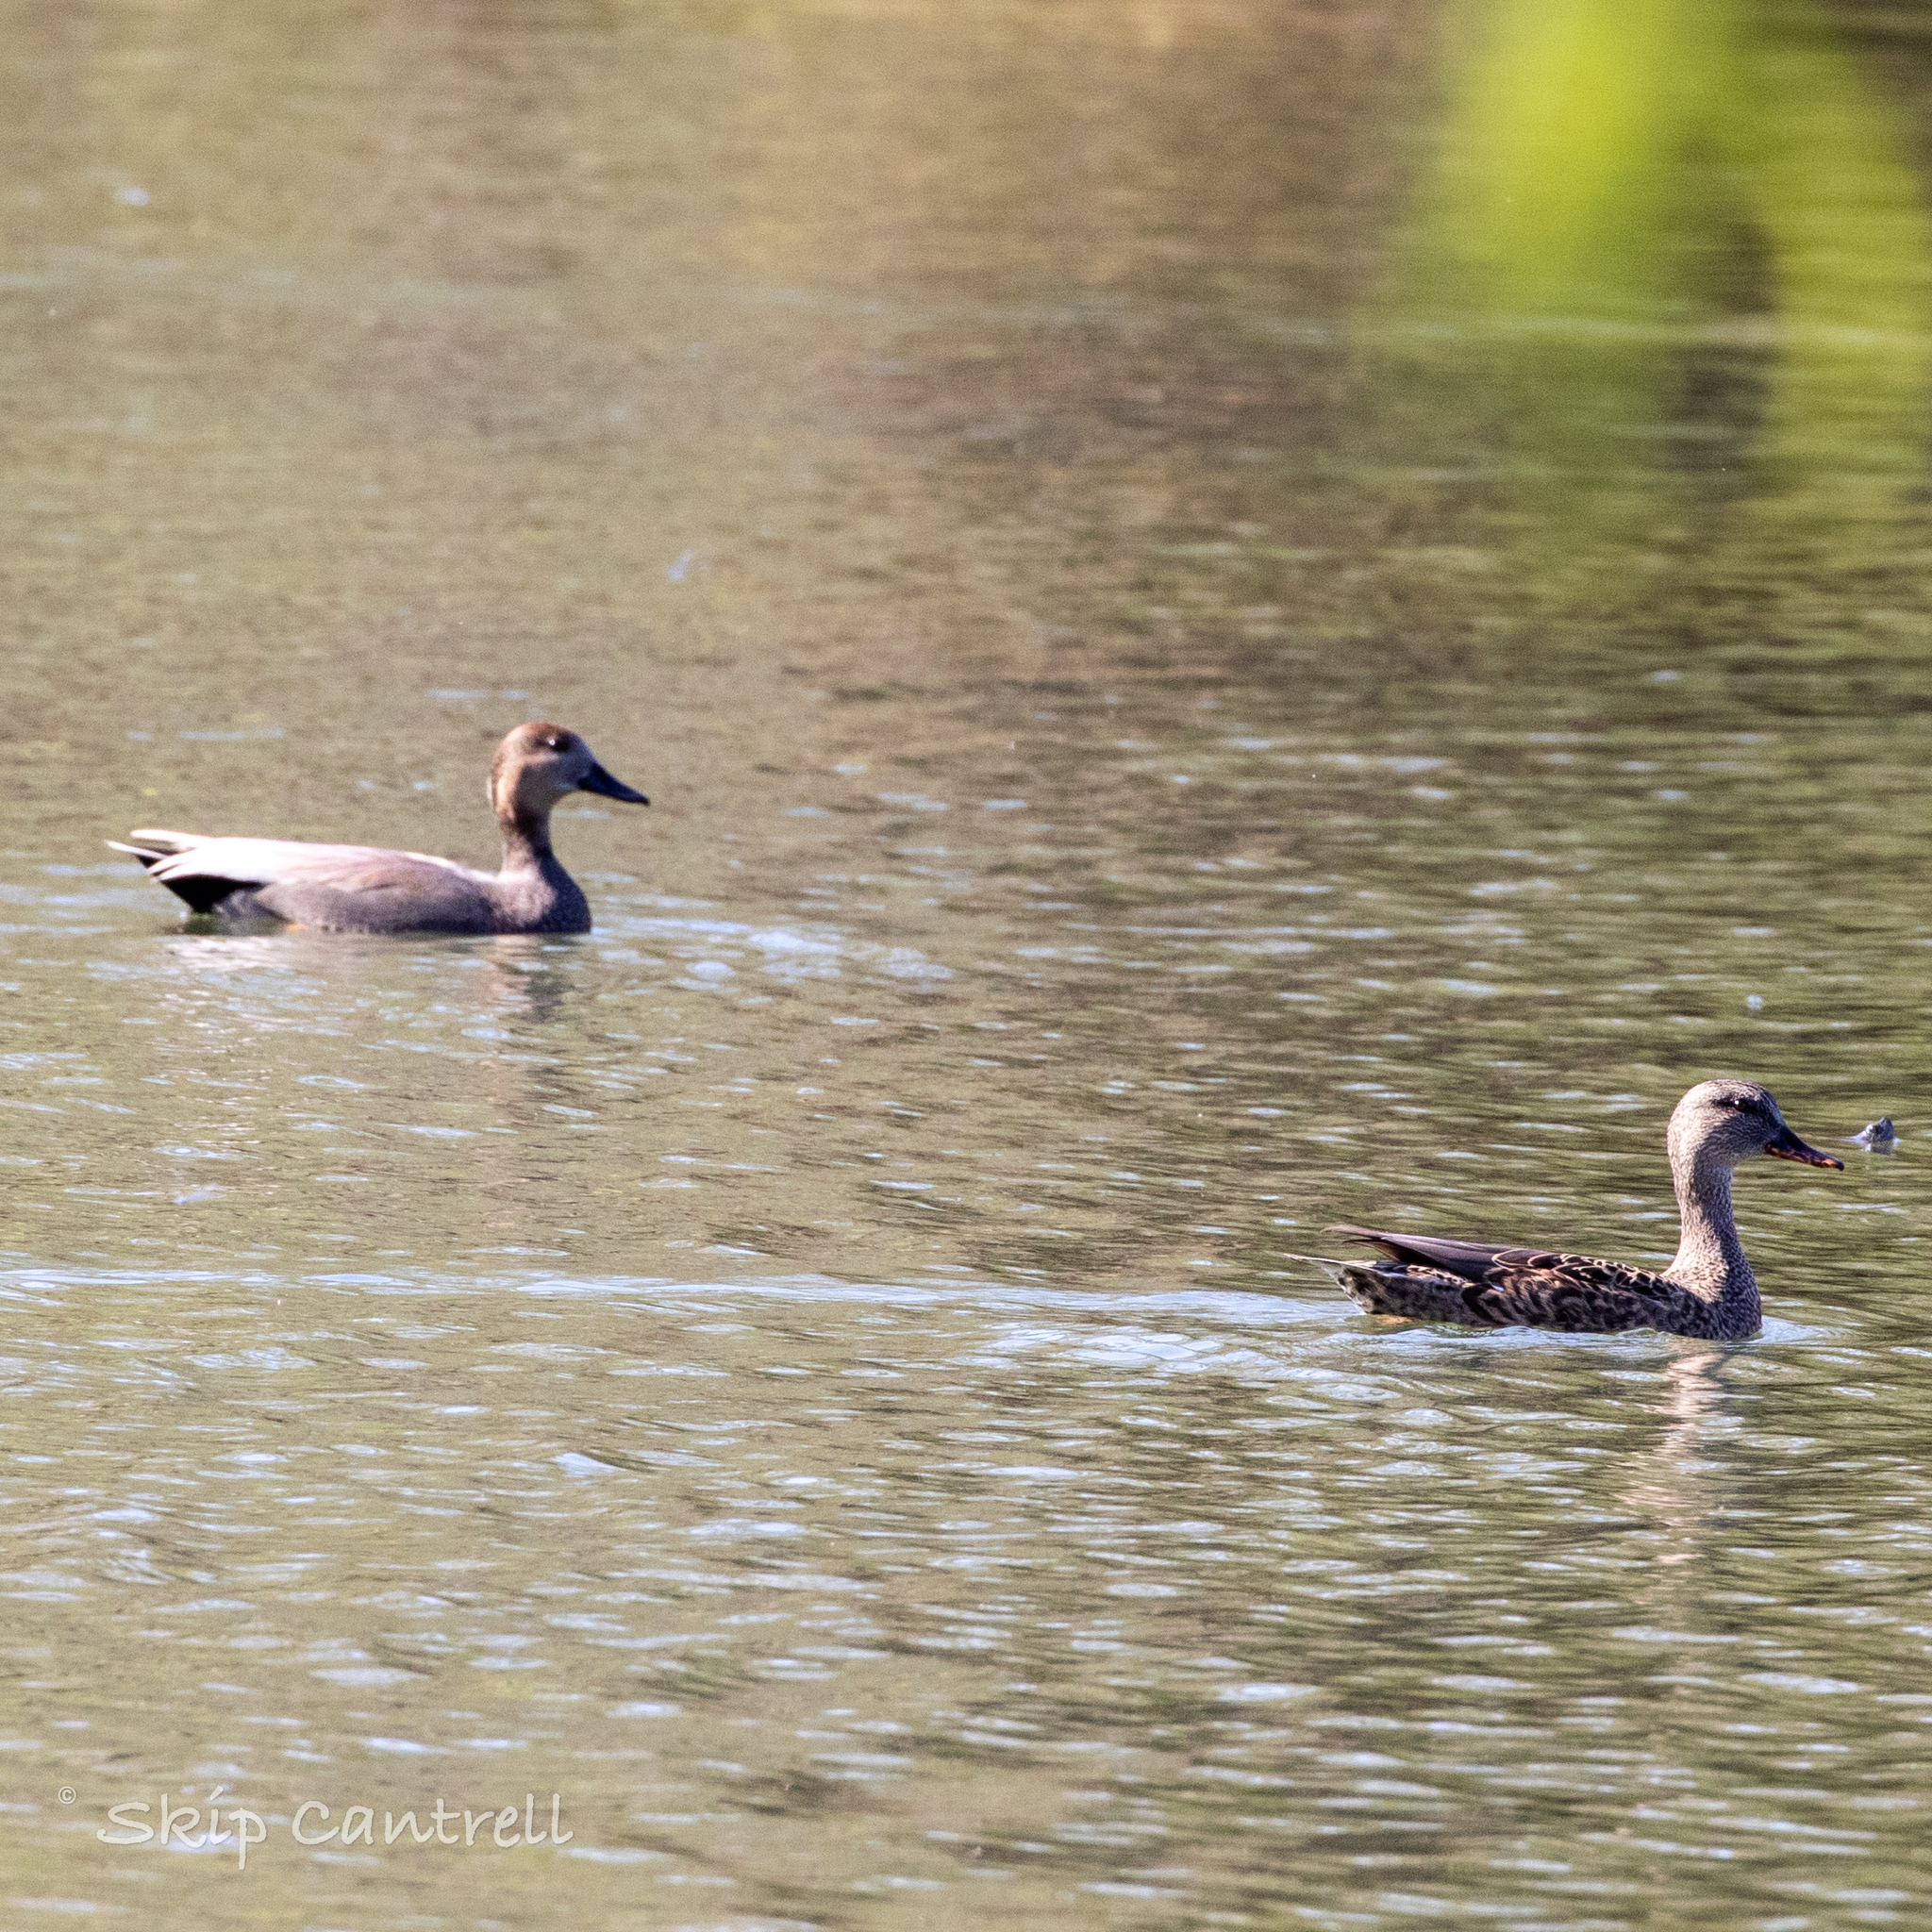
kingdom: Animalia
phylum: Chordata
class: Aves
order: Anseriformes
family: Anatidae
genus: Mareca
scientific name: Mareca strepera
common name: Gadwall
